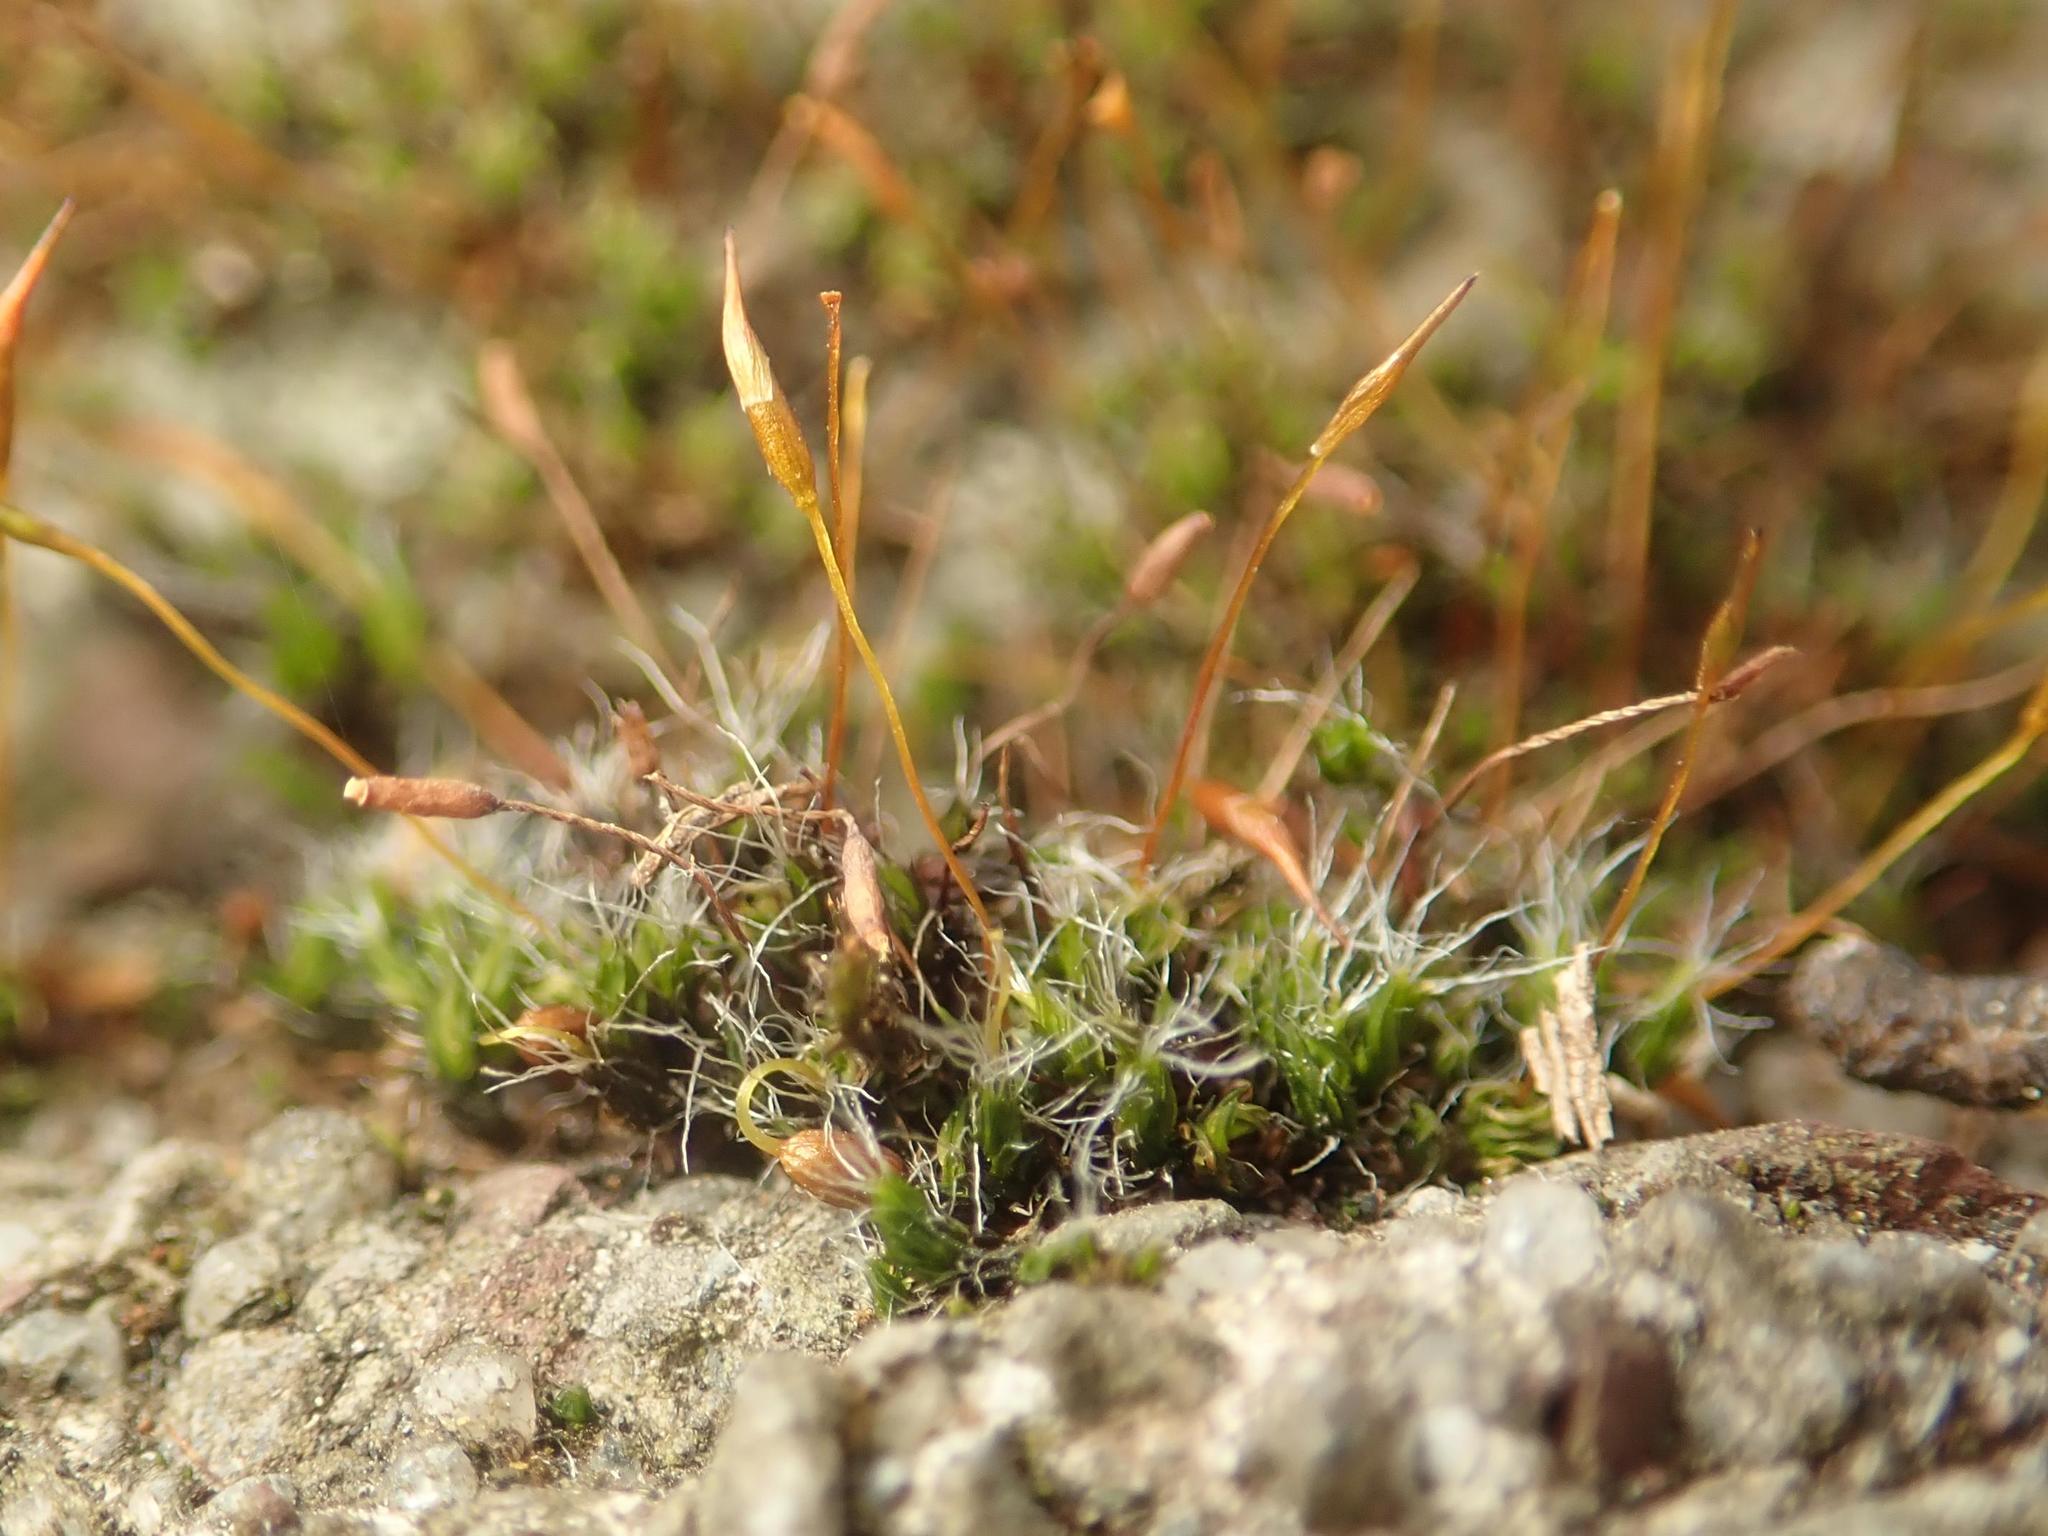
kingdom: Plantae
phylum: Bryophyta
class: Bryopsida
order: Pottiales
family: Pottiaceae
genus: Tortula
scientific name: Tortula muralis
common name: Wall screw-moss
